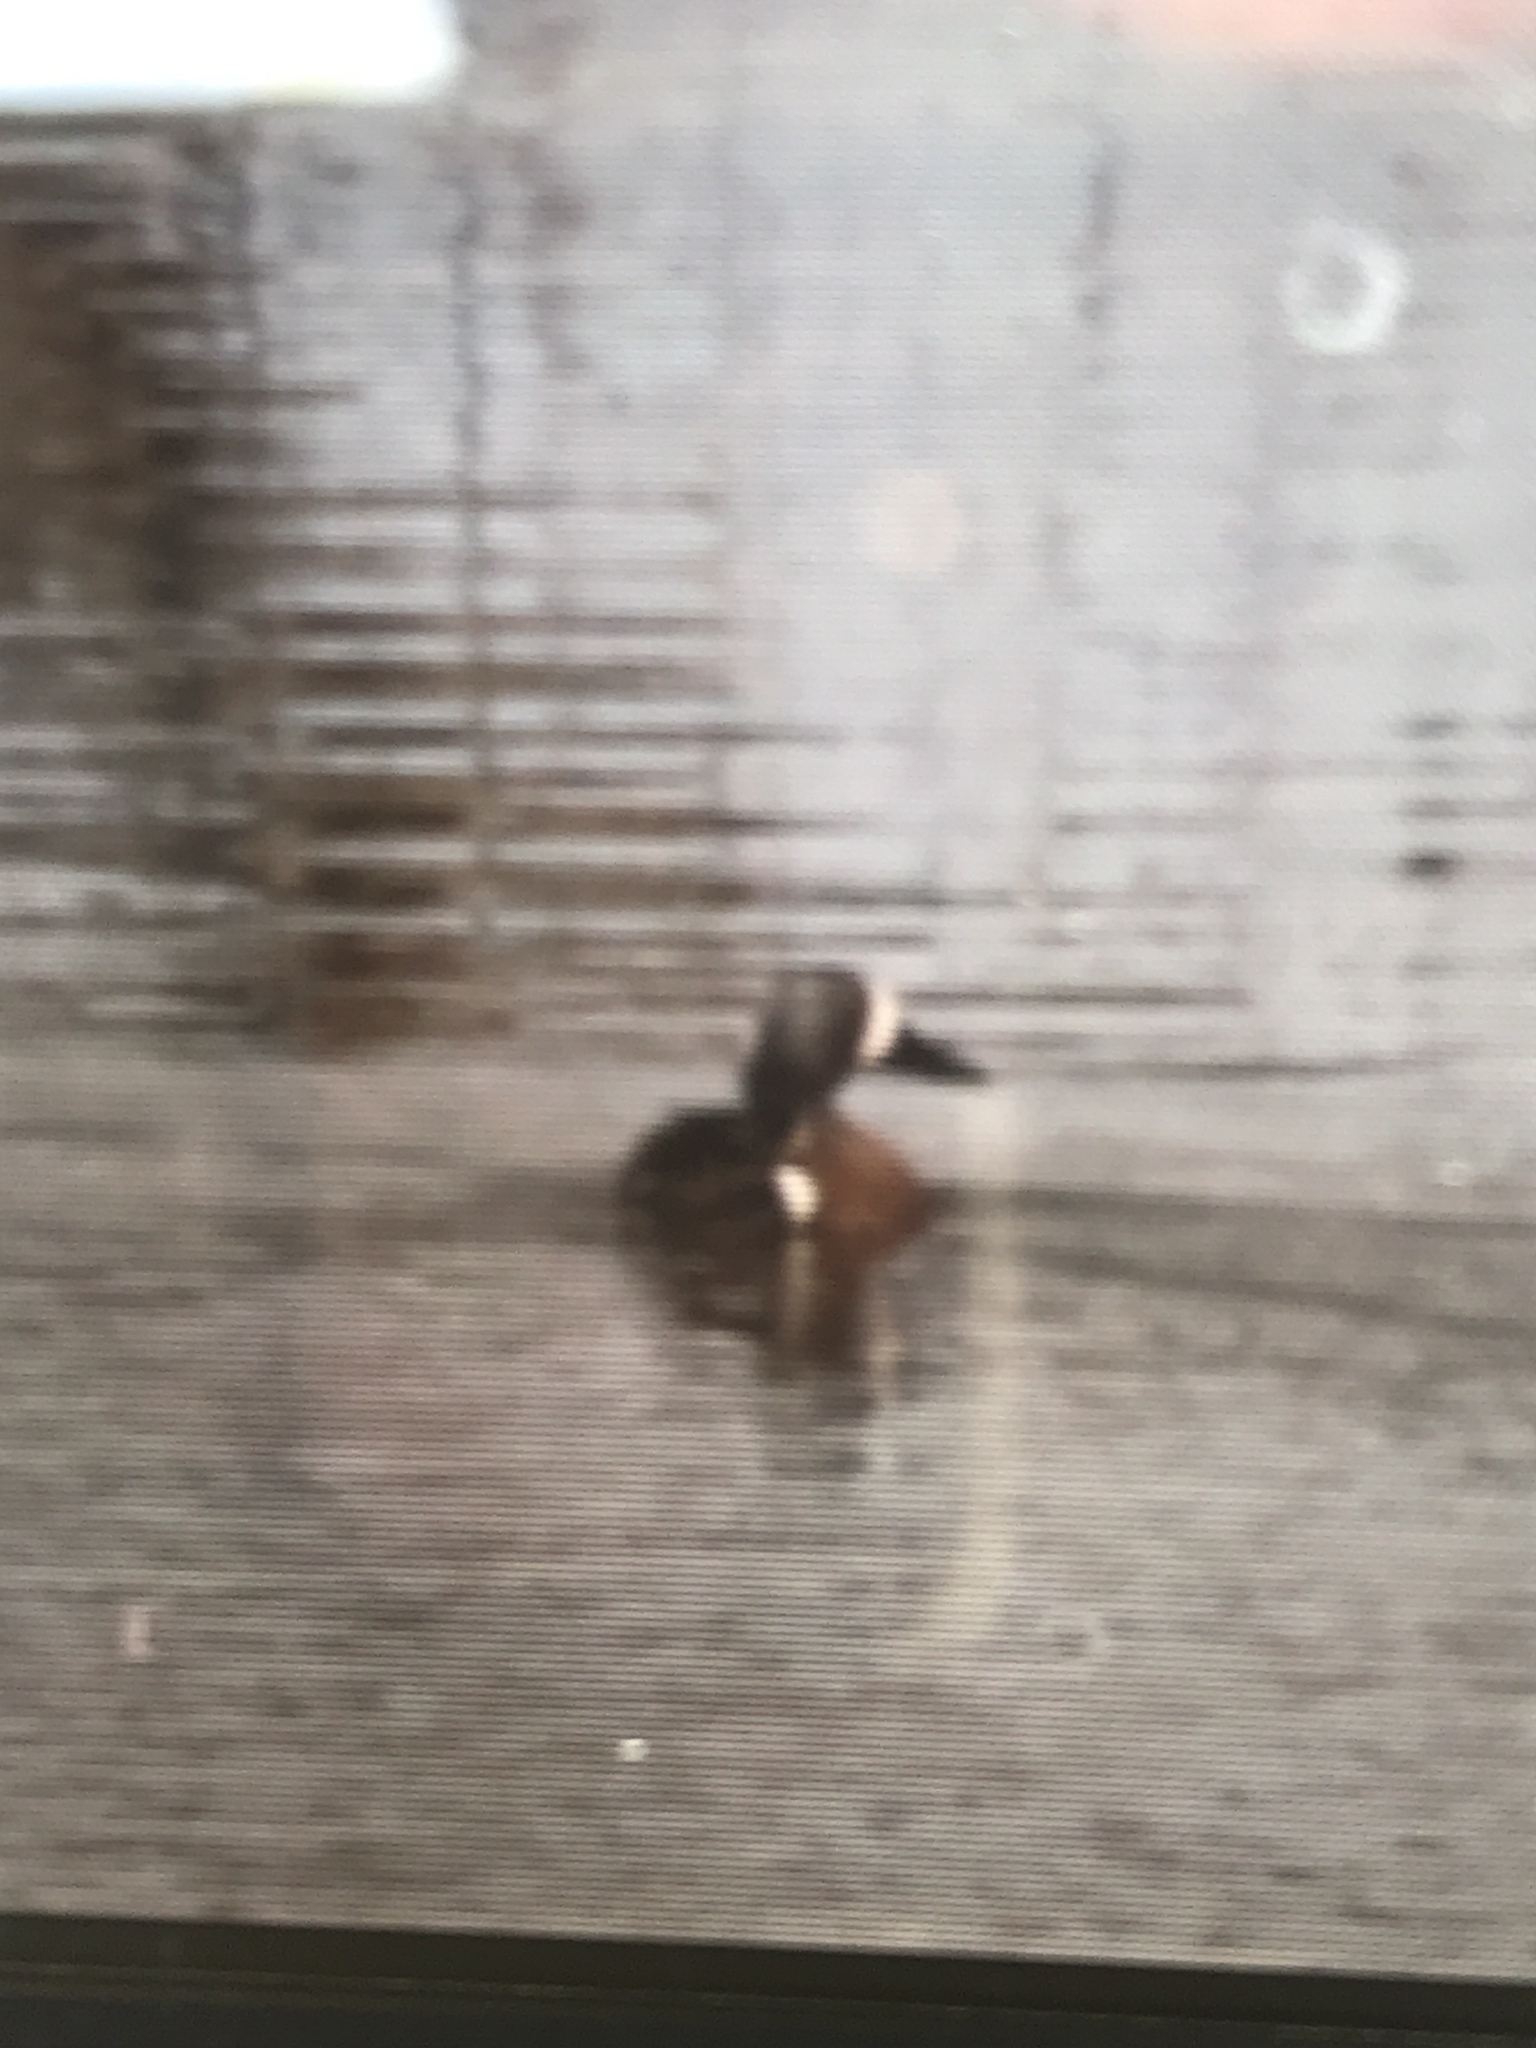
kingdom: Animalia
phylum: Chordata
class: Aves
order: Anseriformes
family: Anatidae
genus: Spatula
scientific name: Spatula discors
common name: Blue-winged teal
